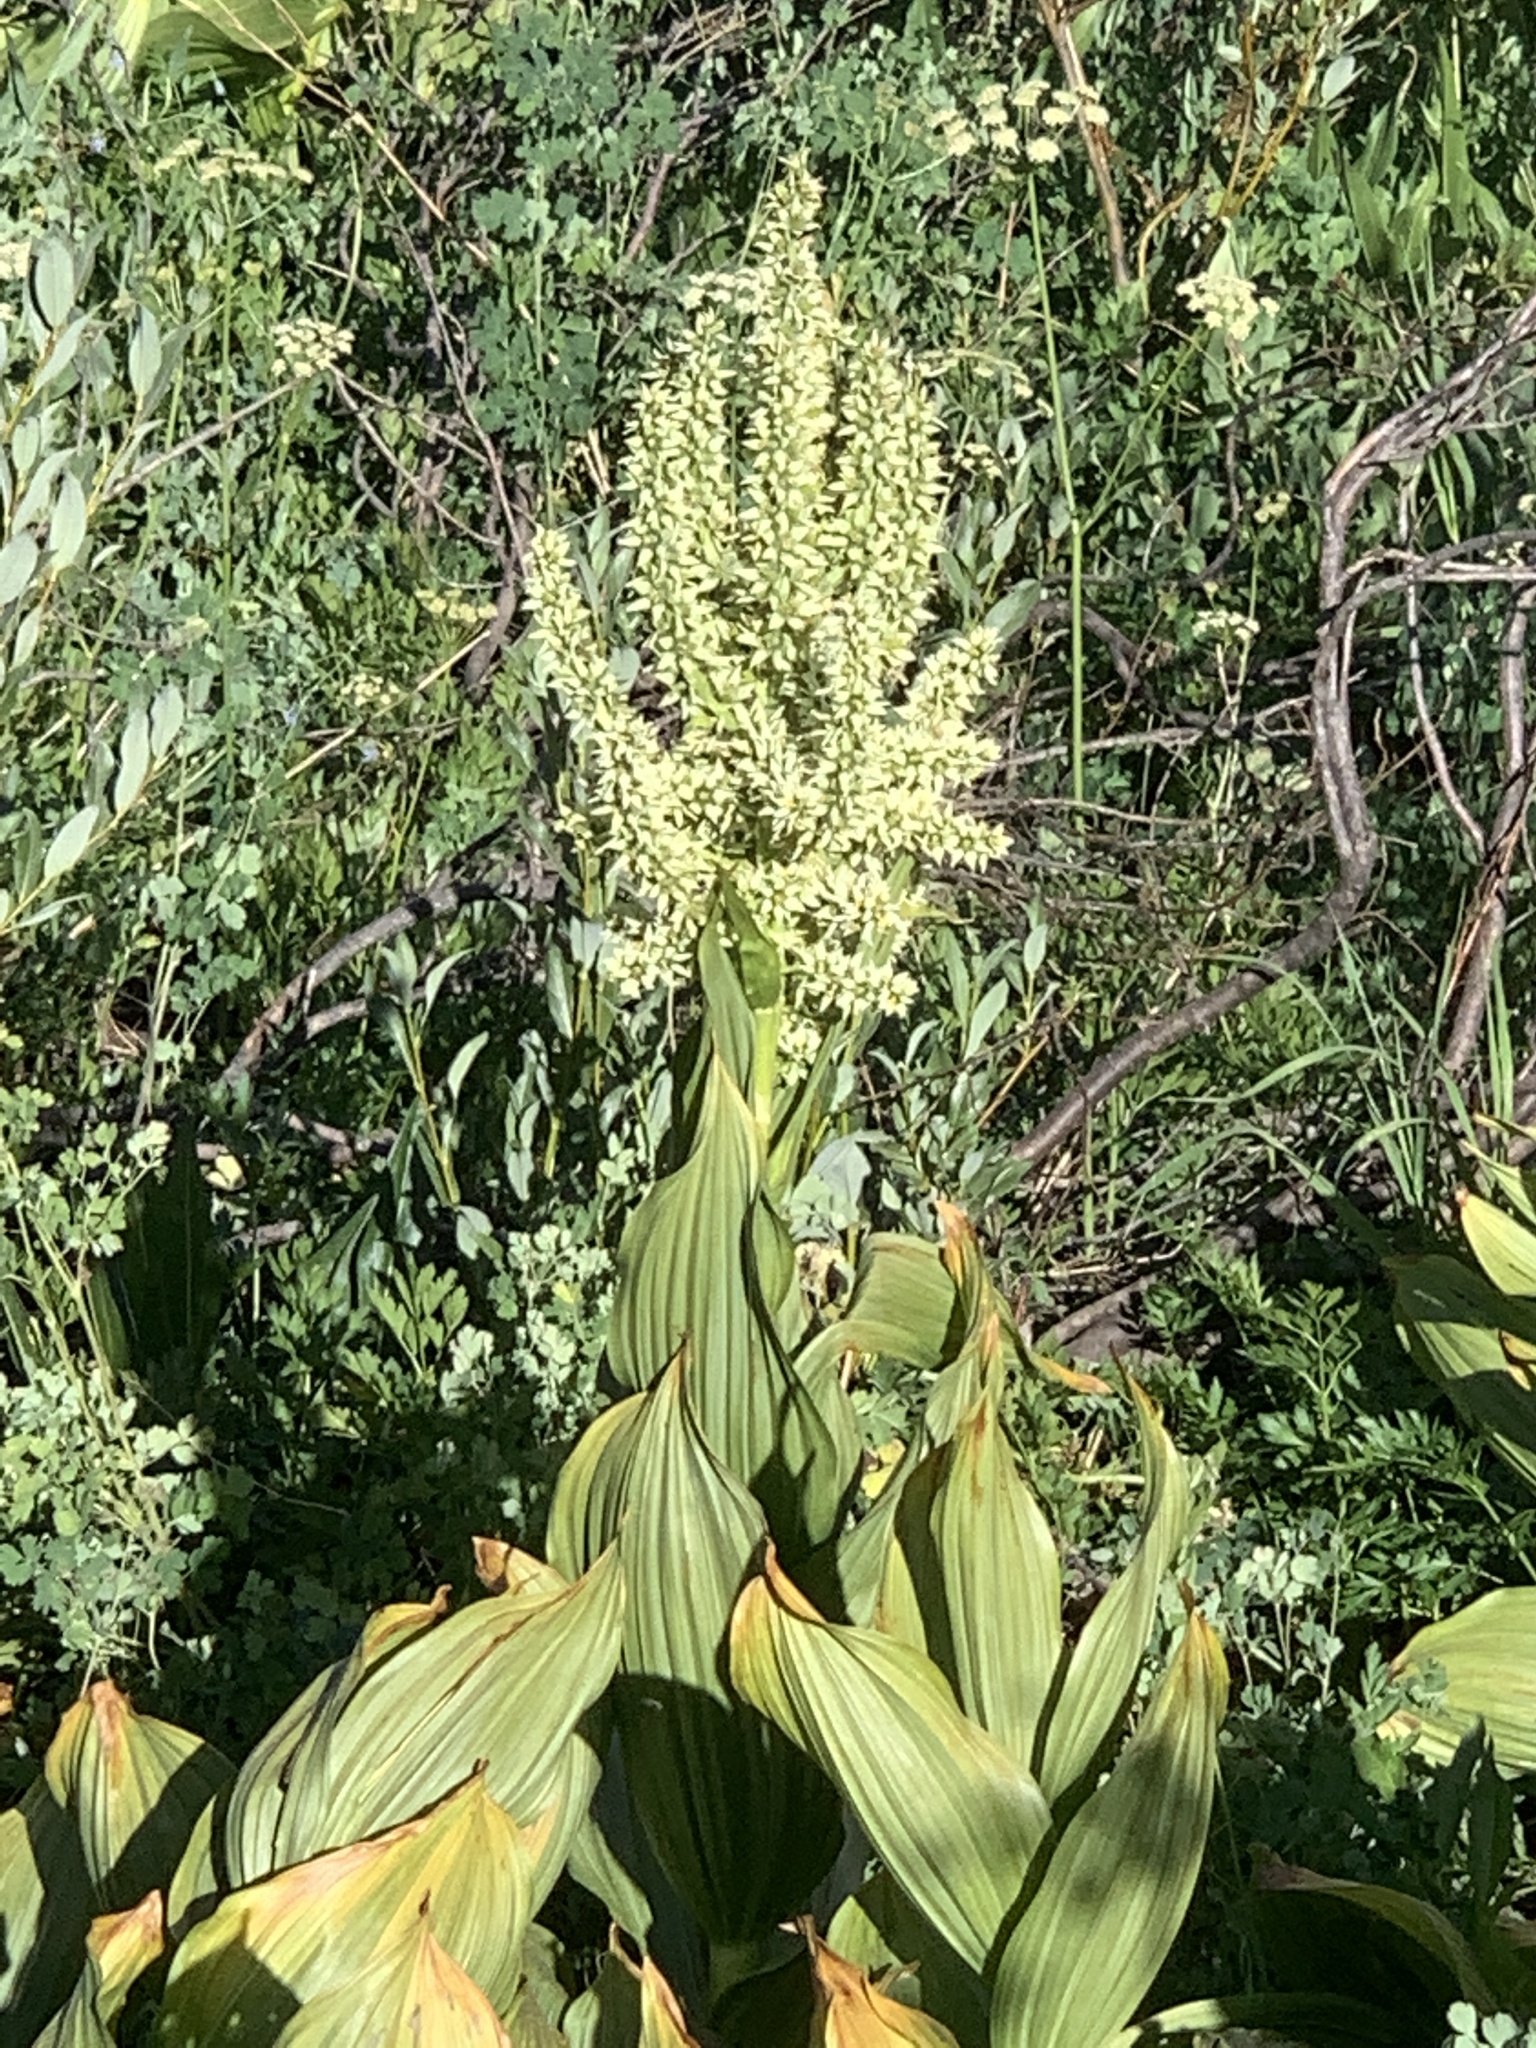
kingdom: Plantae
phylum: Tracheophyta
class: Liliopsida
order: Liliales
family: Melanthiaceae
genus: Veratrum
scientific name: Veratrum californicum
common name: California veratrum
